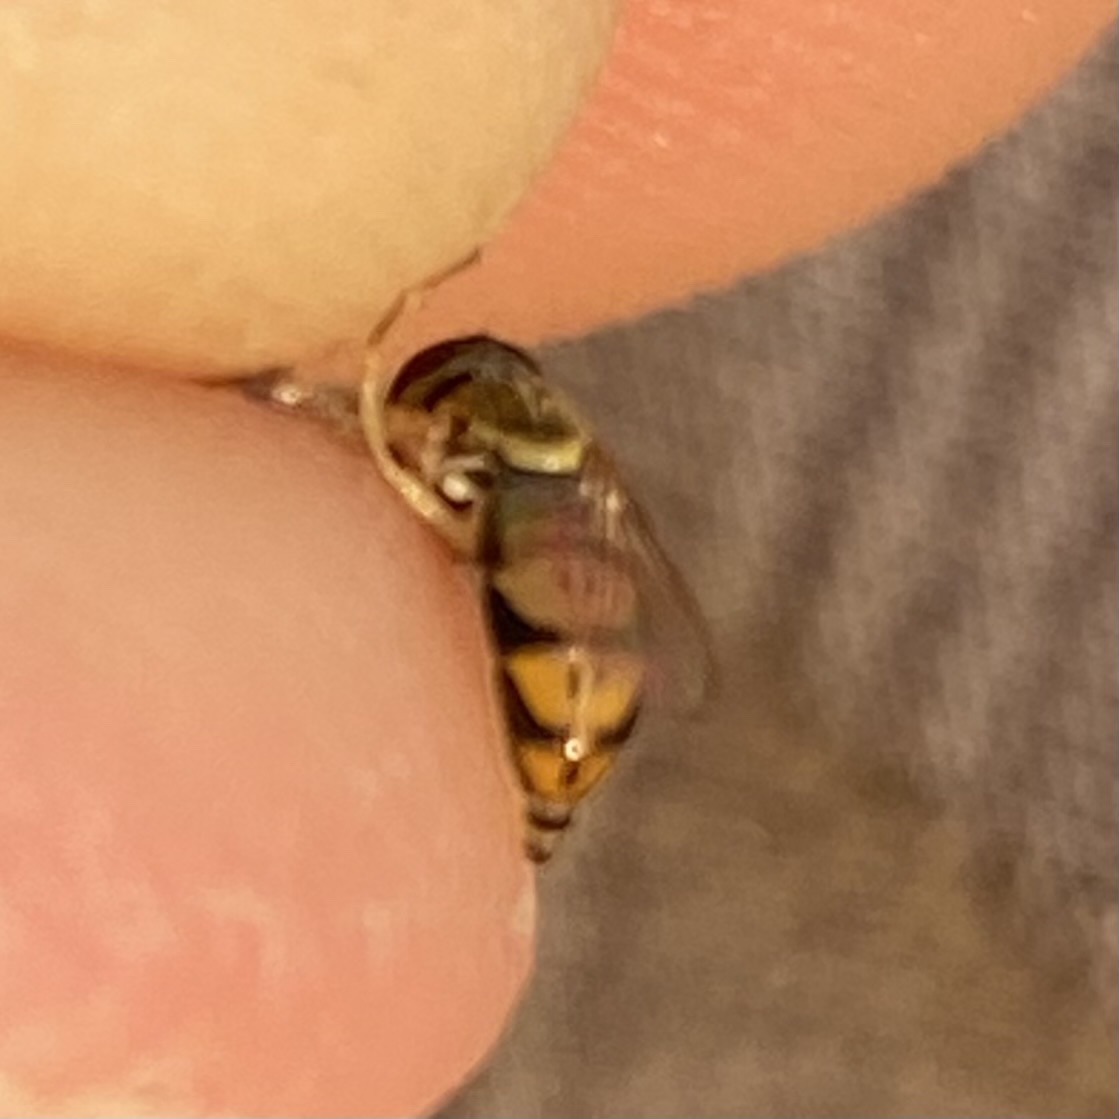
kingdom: Animalia
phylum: Arthropoda
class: Insecta
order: Diptera
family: Syrphidae
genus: Toxomerus
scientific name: Toxomerus marginatus
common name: Syrphid fly
